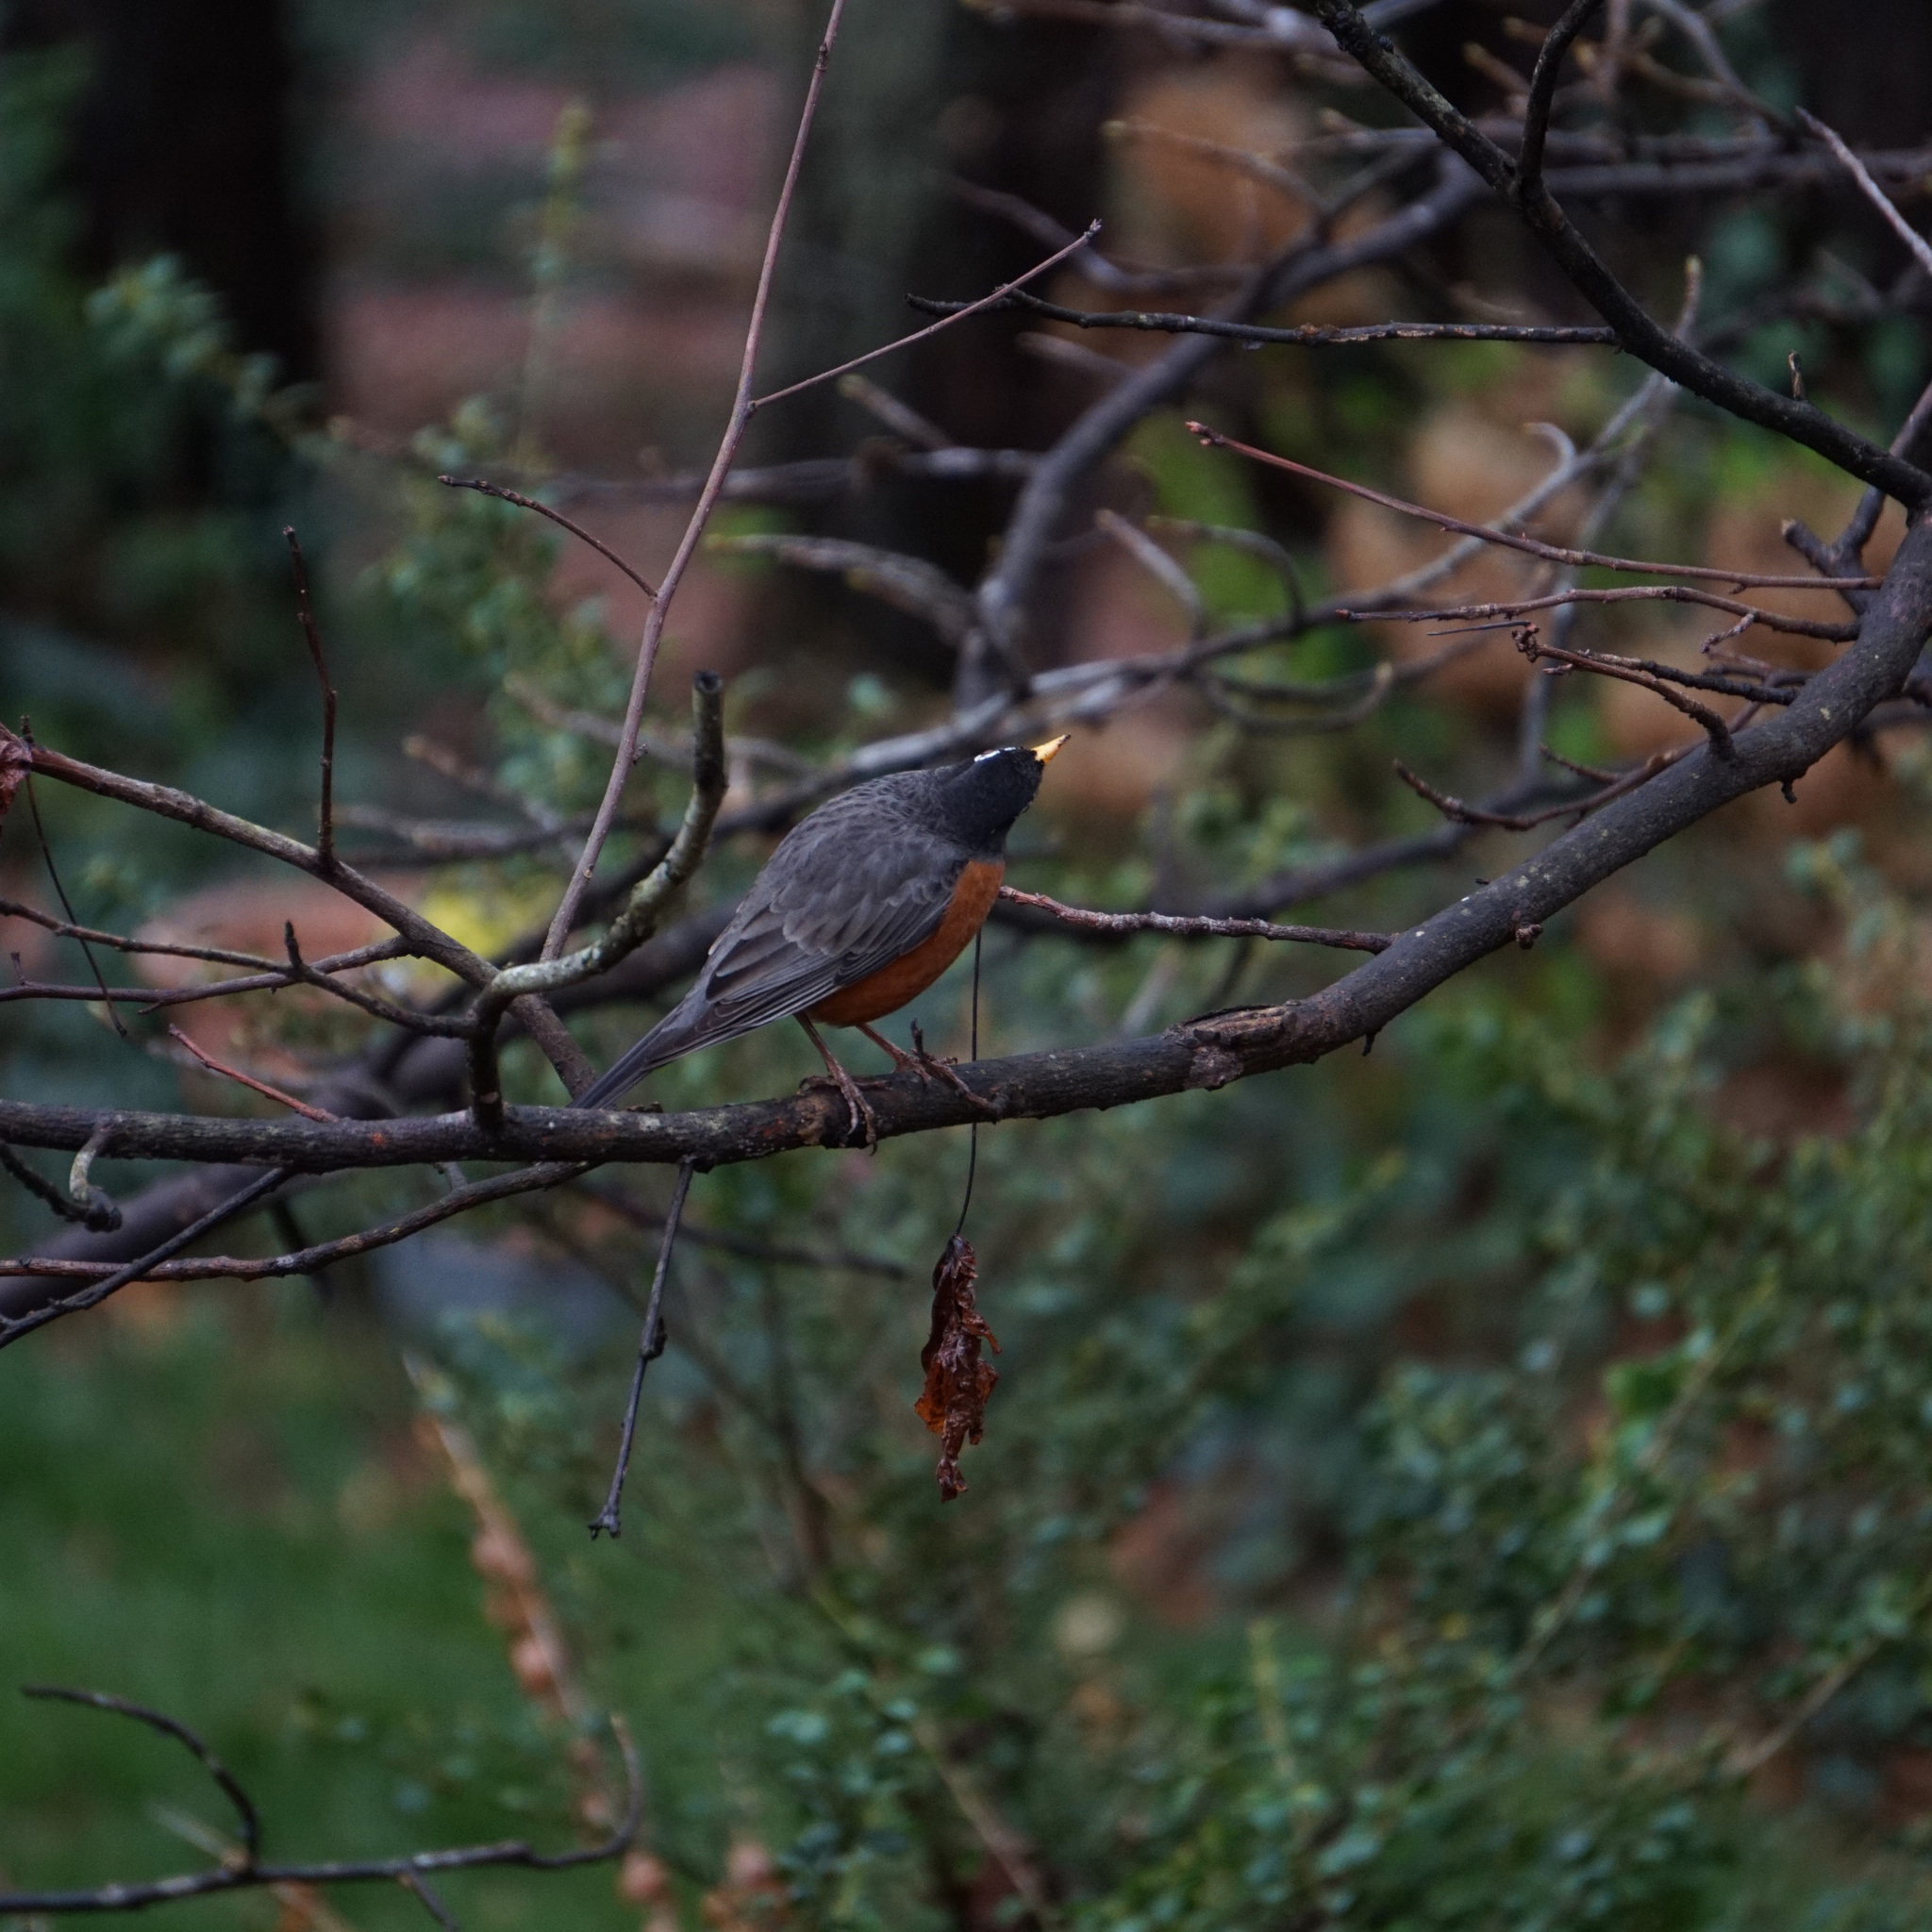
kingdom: Animalia
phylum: Chordata
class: Aves
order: Passeriformes
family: Turdidae
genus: Turdus
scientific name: Turdus migratorius
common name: American robin
